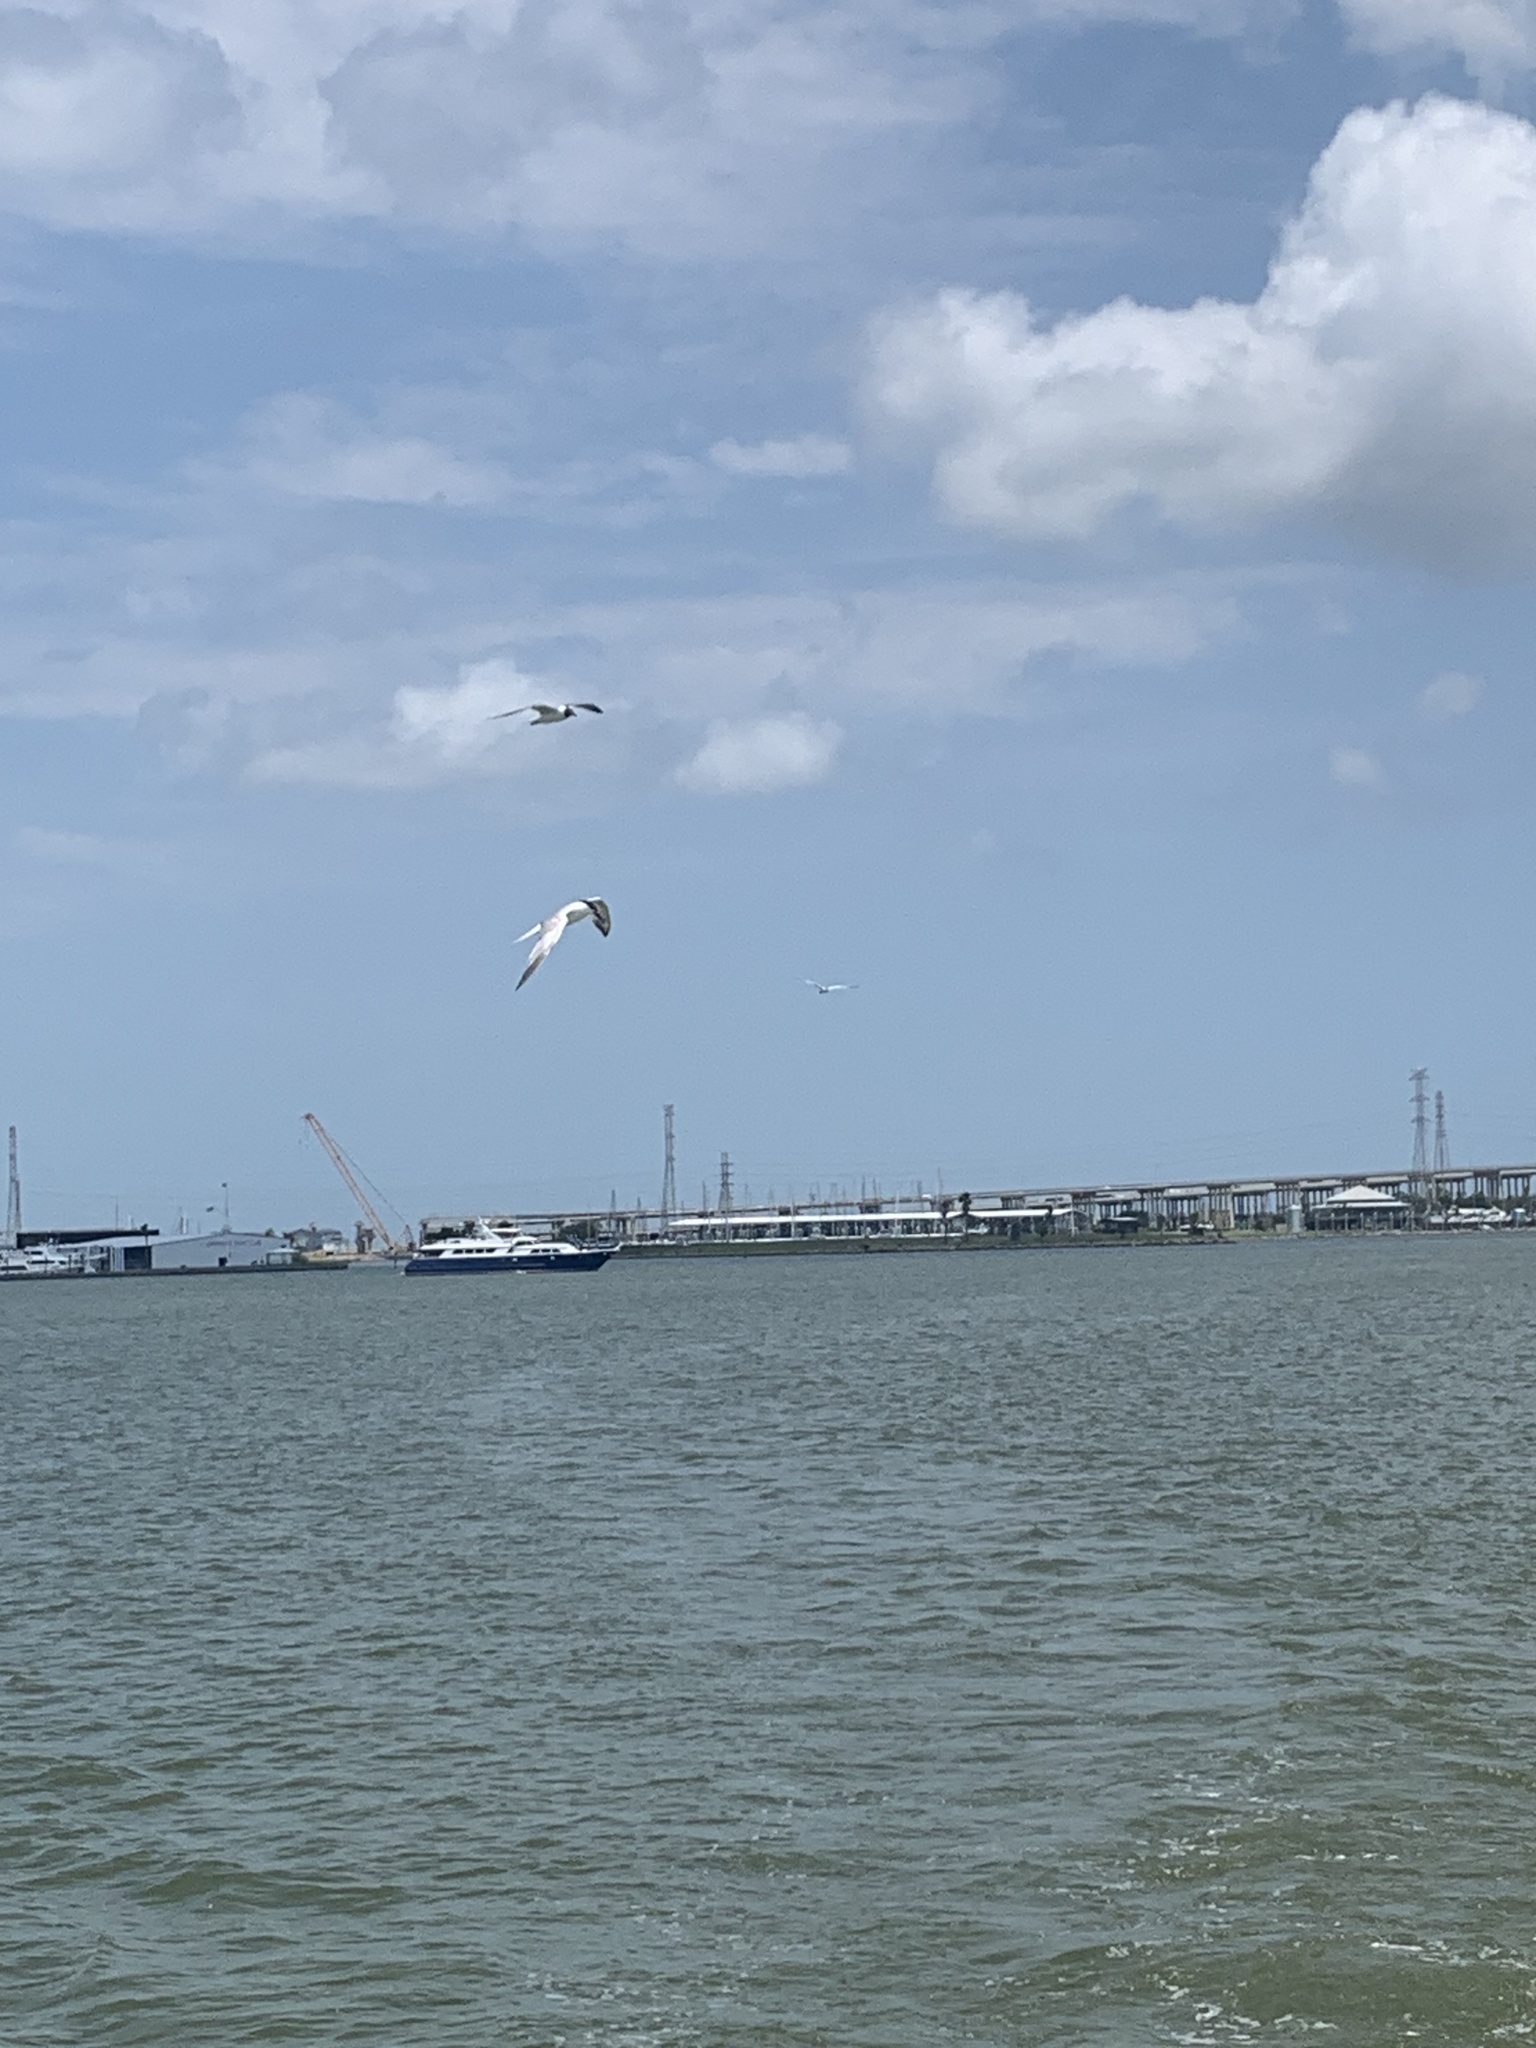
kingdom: Animalia
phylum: Chordata
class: Aves
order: Charadriiformes
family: Laridae
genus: Thalasseus
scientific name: Thalasseus sandvicensis
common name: Sandwich tern
